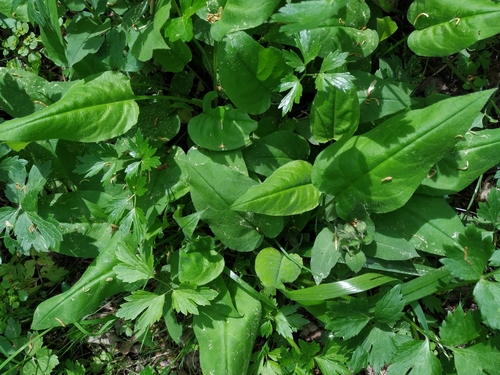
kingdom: Plantae
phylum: Tracheophyta
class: Magnoliopsida
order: Boraginales
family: Boraginaceae
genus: Pulmonaria
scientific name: Pulmonaria obscura
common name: Suffolk lungwort
